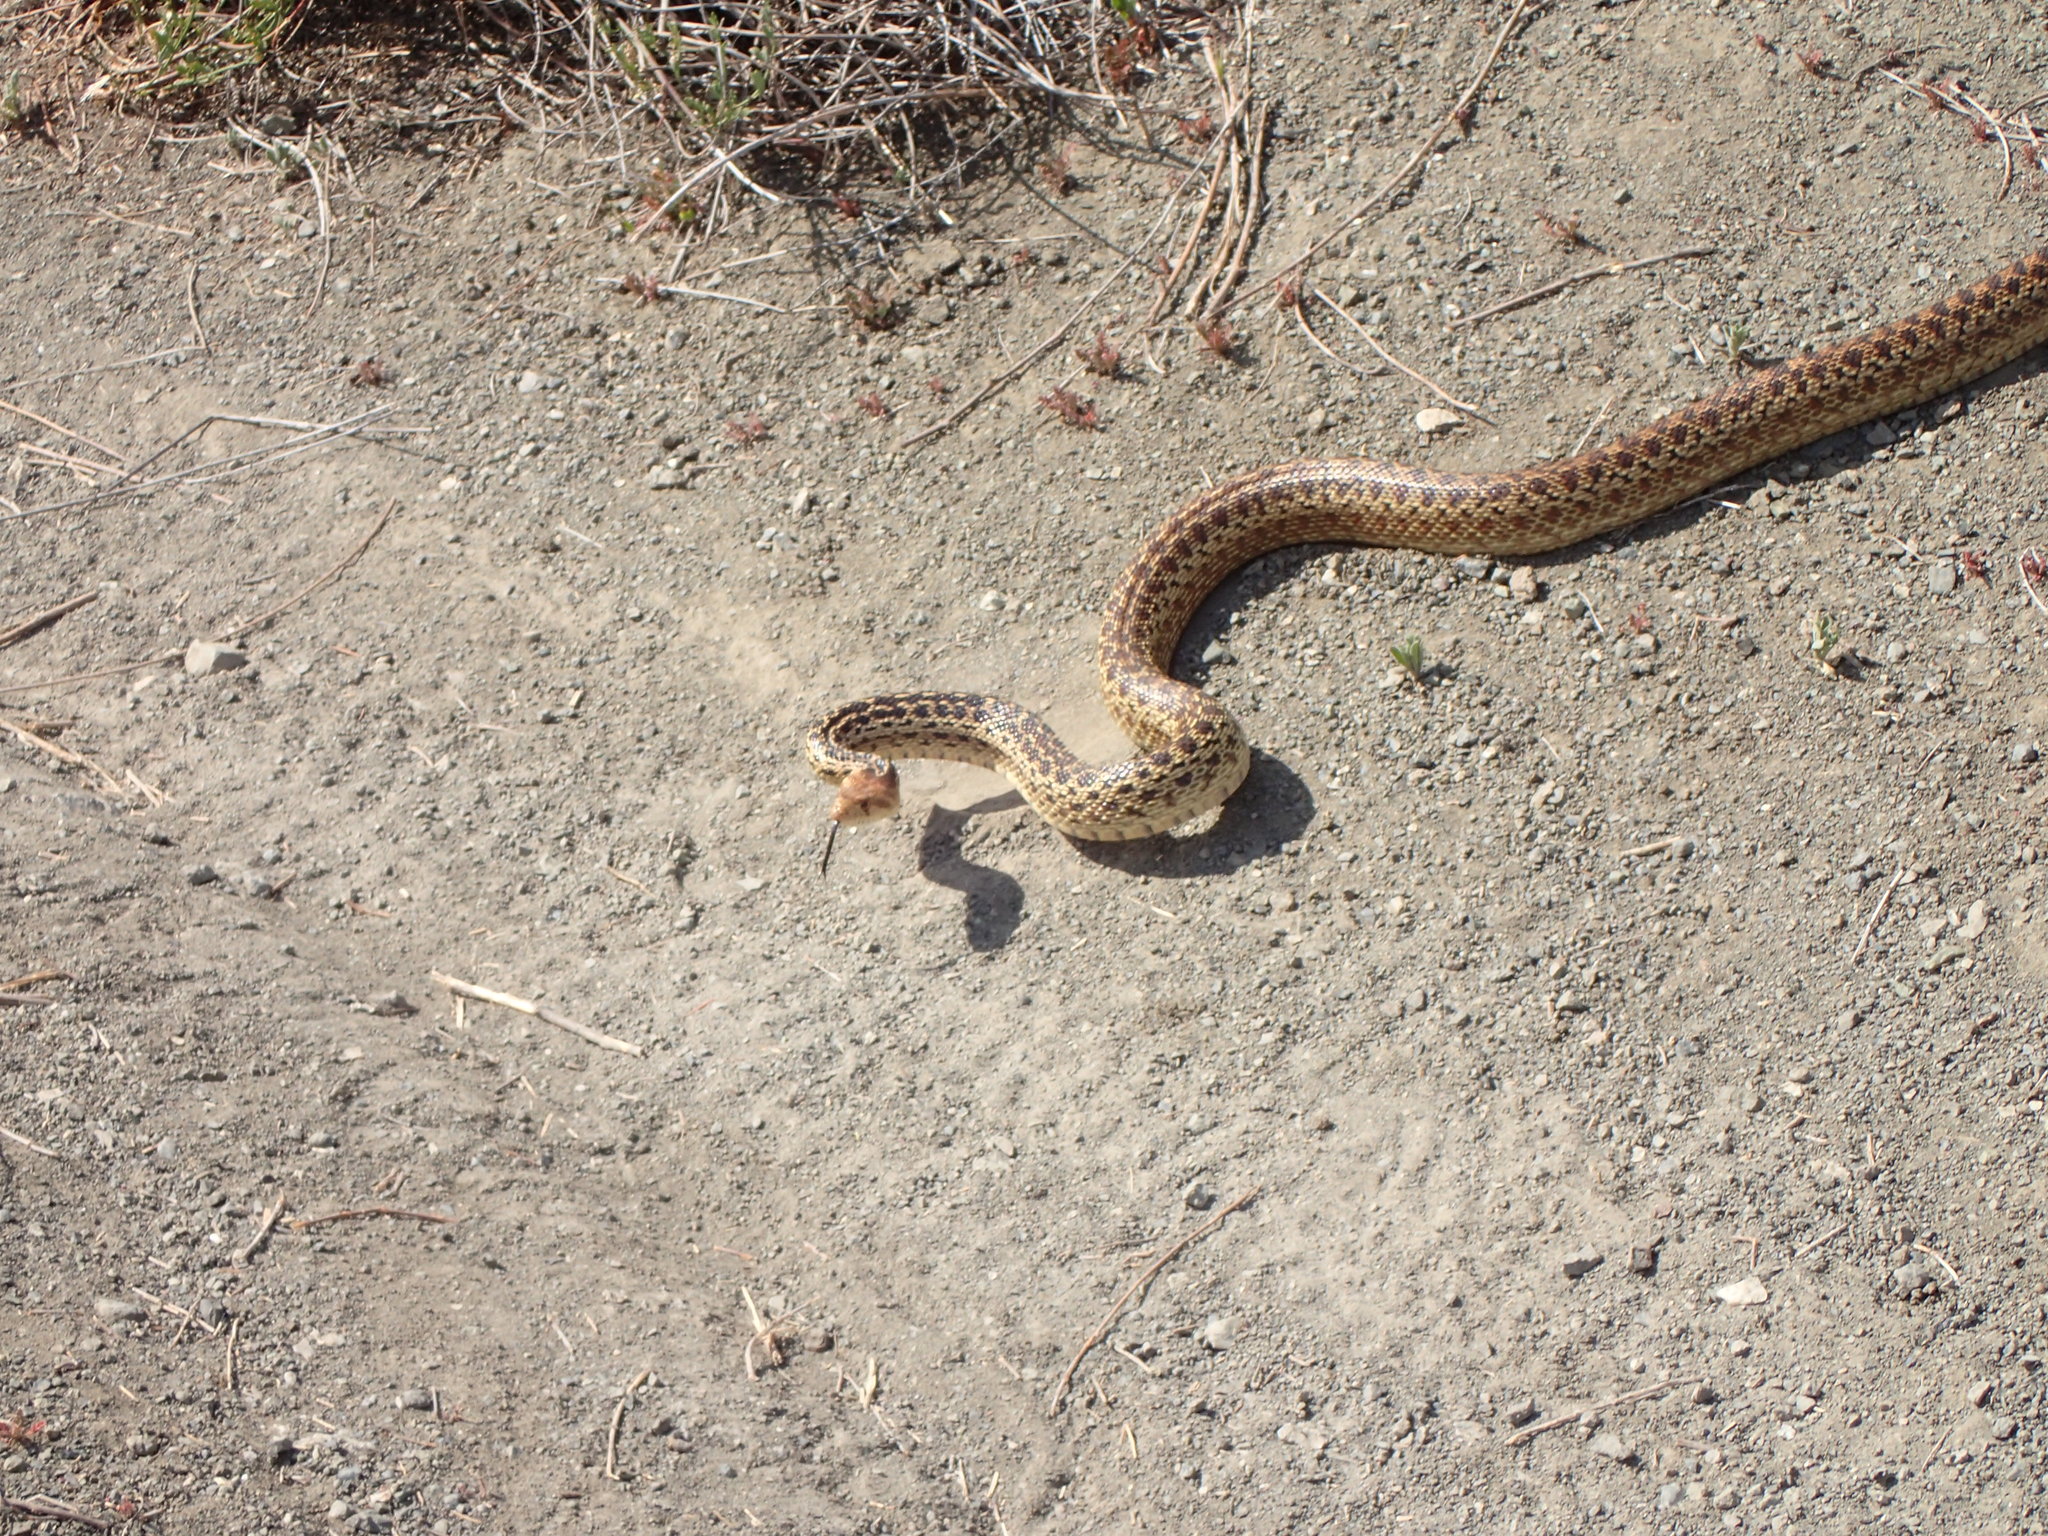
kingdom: Animalia
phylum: Chordata
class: Squamata
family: Colubridae
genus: Pituophis
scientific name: Pituophis catenifer
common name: Gopher snake
